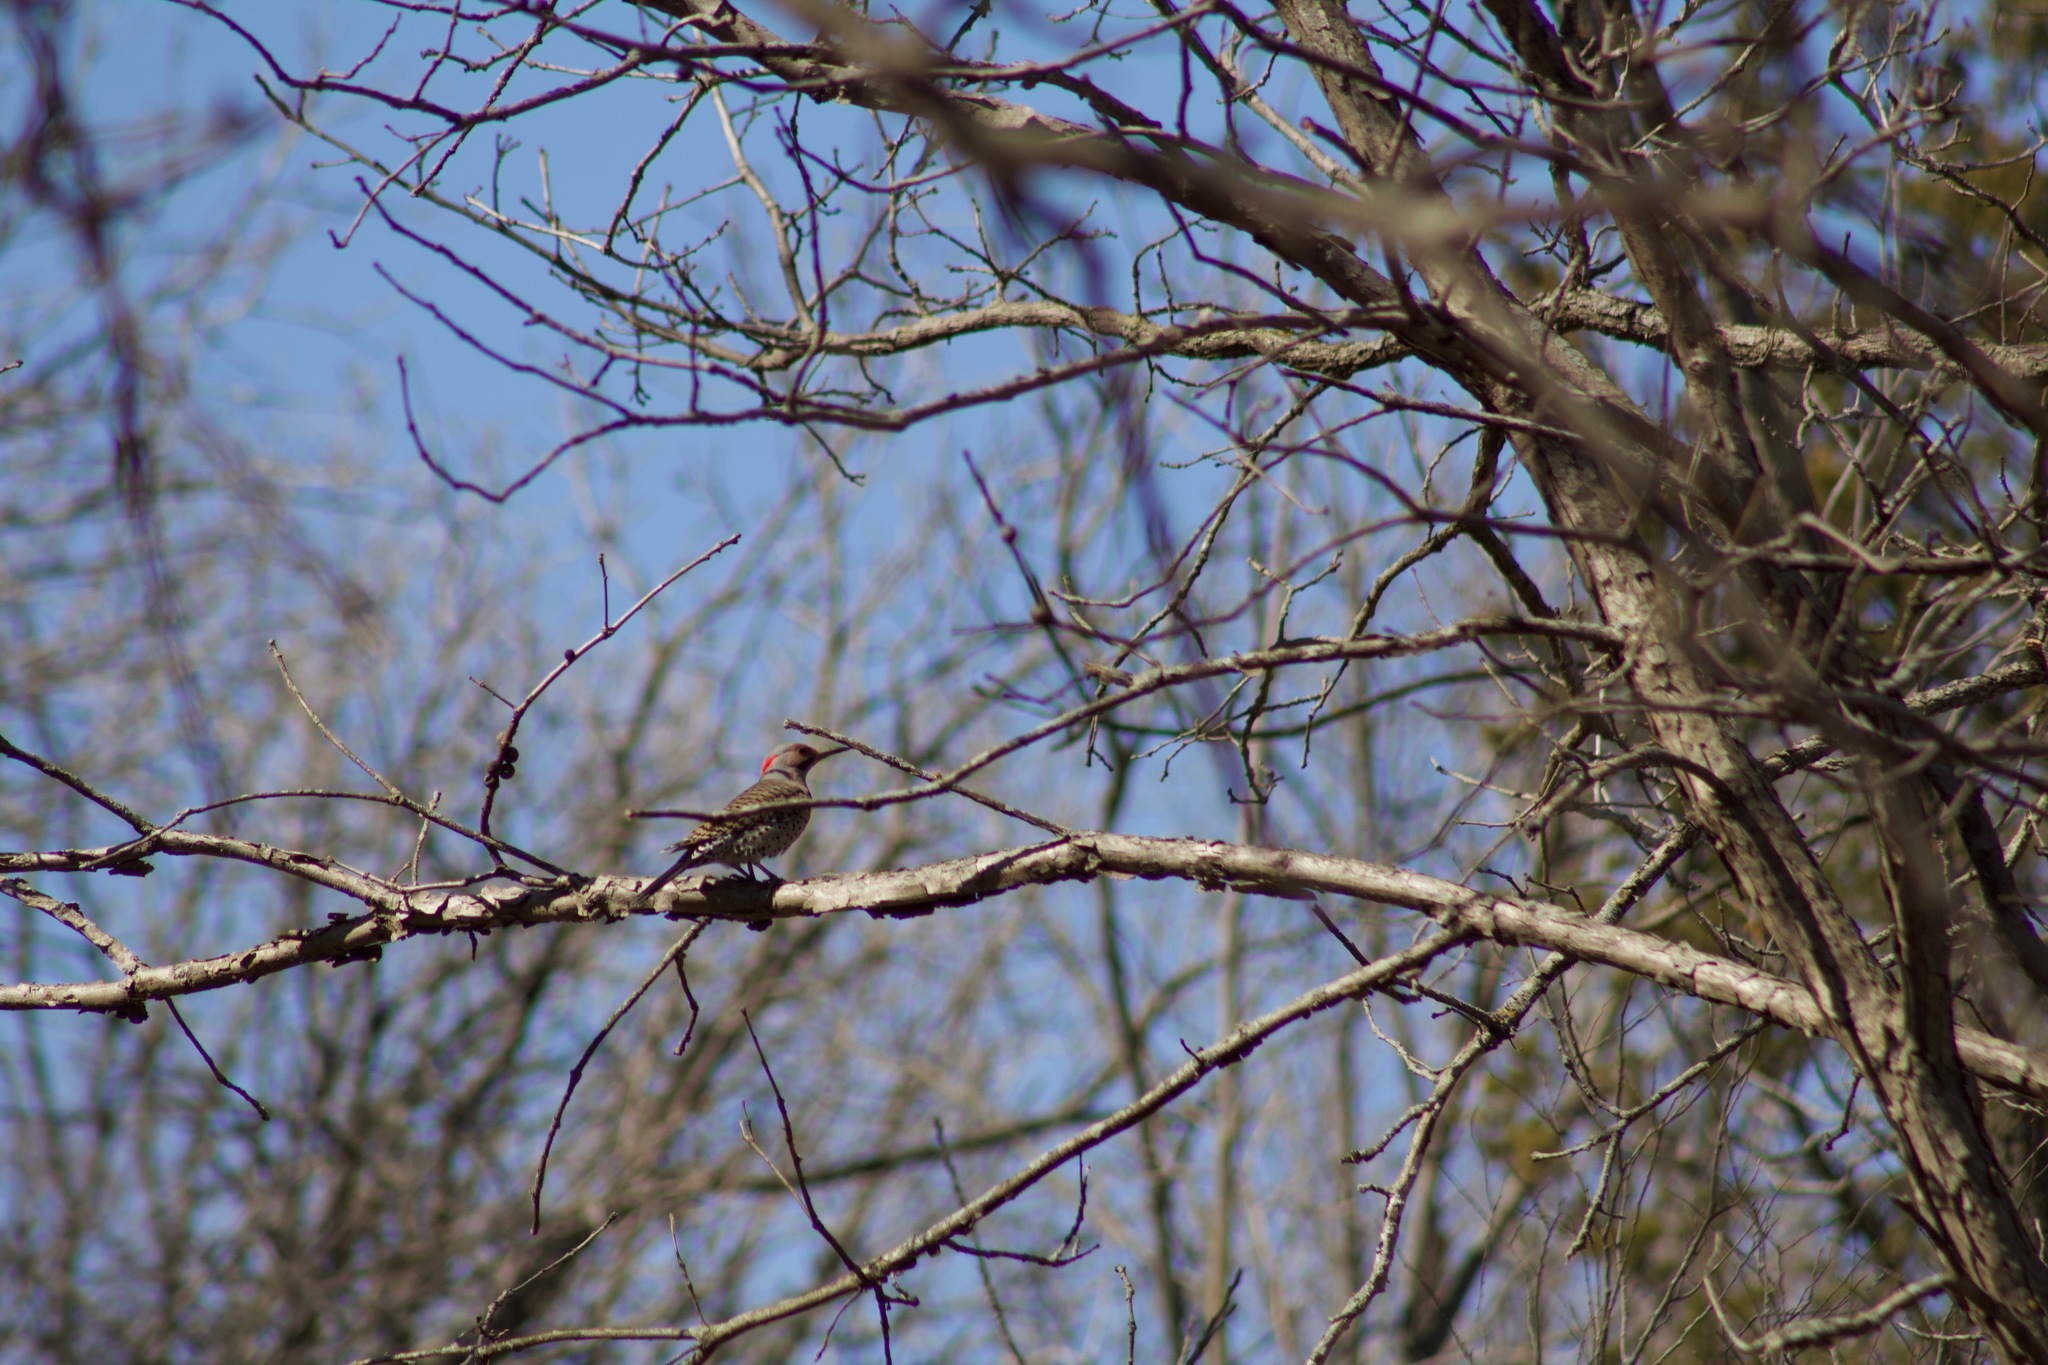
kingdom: Animalia
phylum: Chordata
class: Aves
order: Piciformes
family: Picidae
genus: Colaptes
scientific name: Colaptes auratus
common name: Northern flicker
